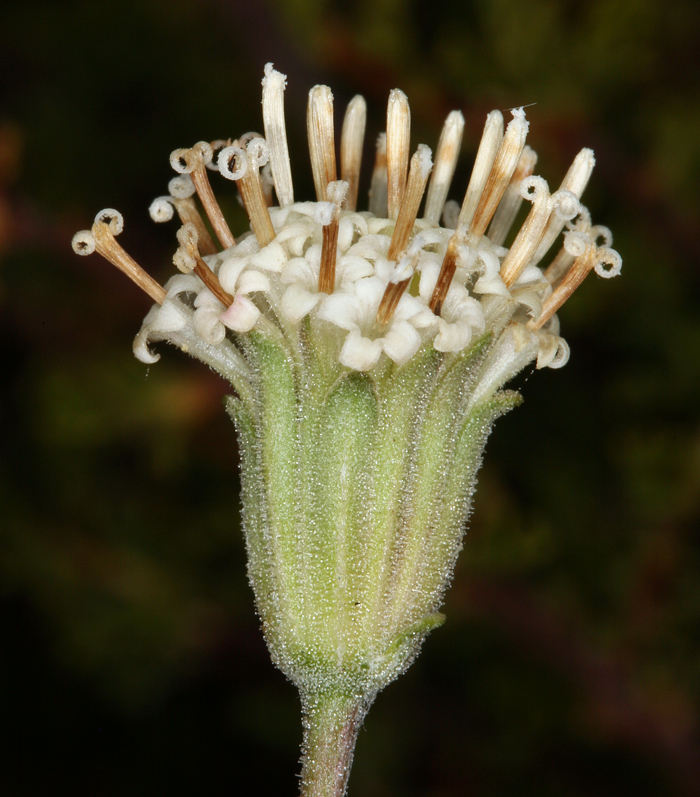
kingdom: Plantae
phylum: Tracheophyta
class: Magnoliopsida
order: Asterales
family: Asteraceae
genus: Chaenactis
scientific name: Chaenactis douglasii
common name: Hoary pincushion
